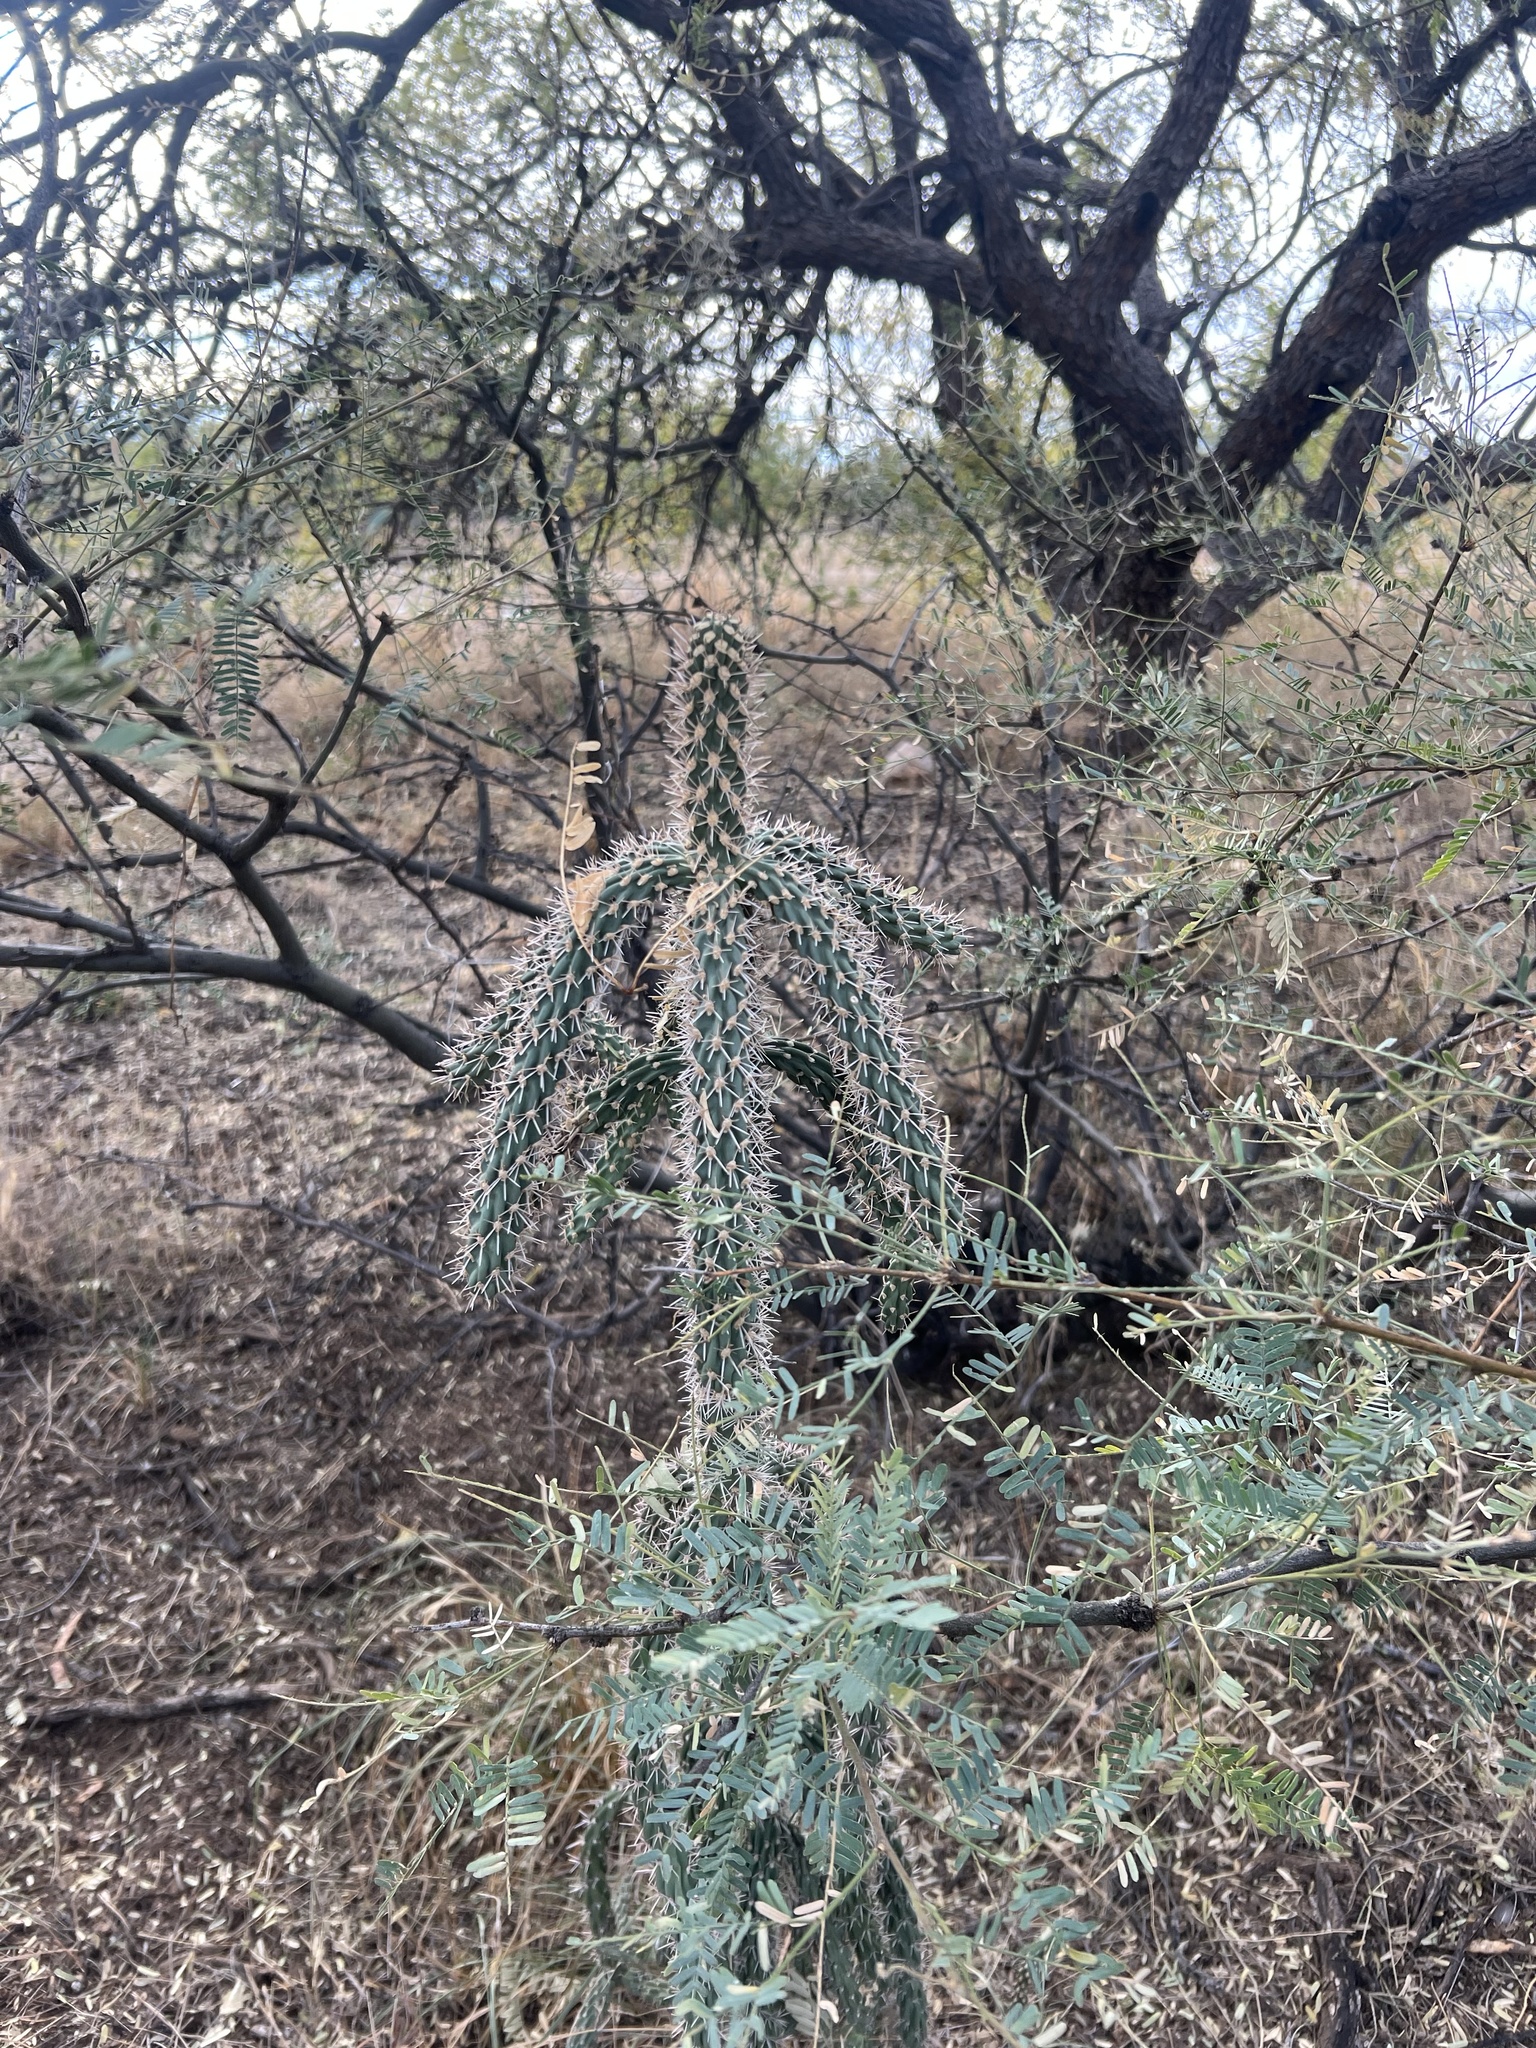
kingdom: Plantae
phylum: Tracheophyta
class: Magnoliopsida
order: Caryophyllales
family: Cactaceae
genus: Cylindropuntia
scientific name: Cylindropuntia imbricata
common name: Candelabrum cactus
